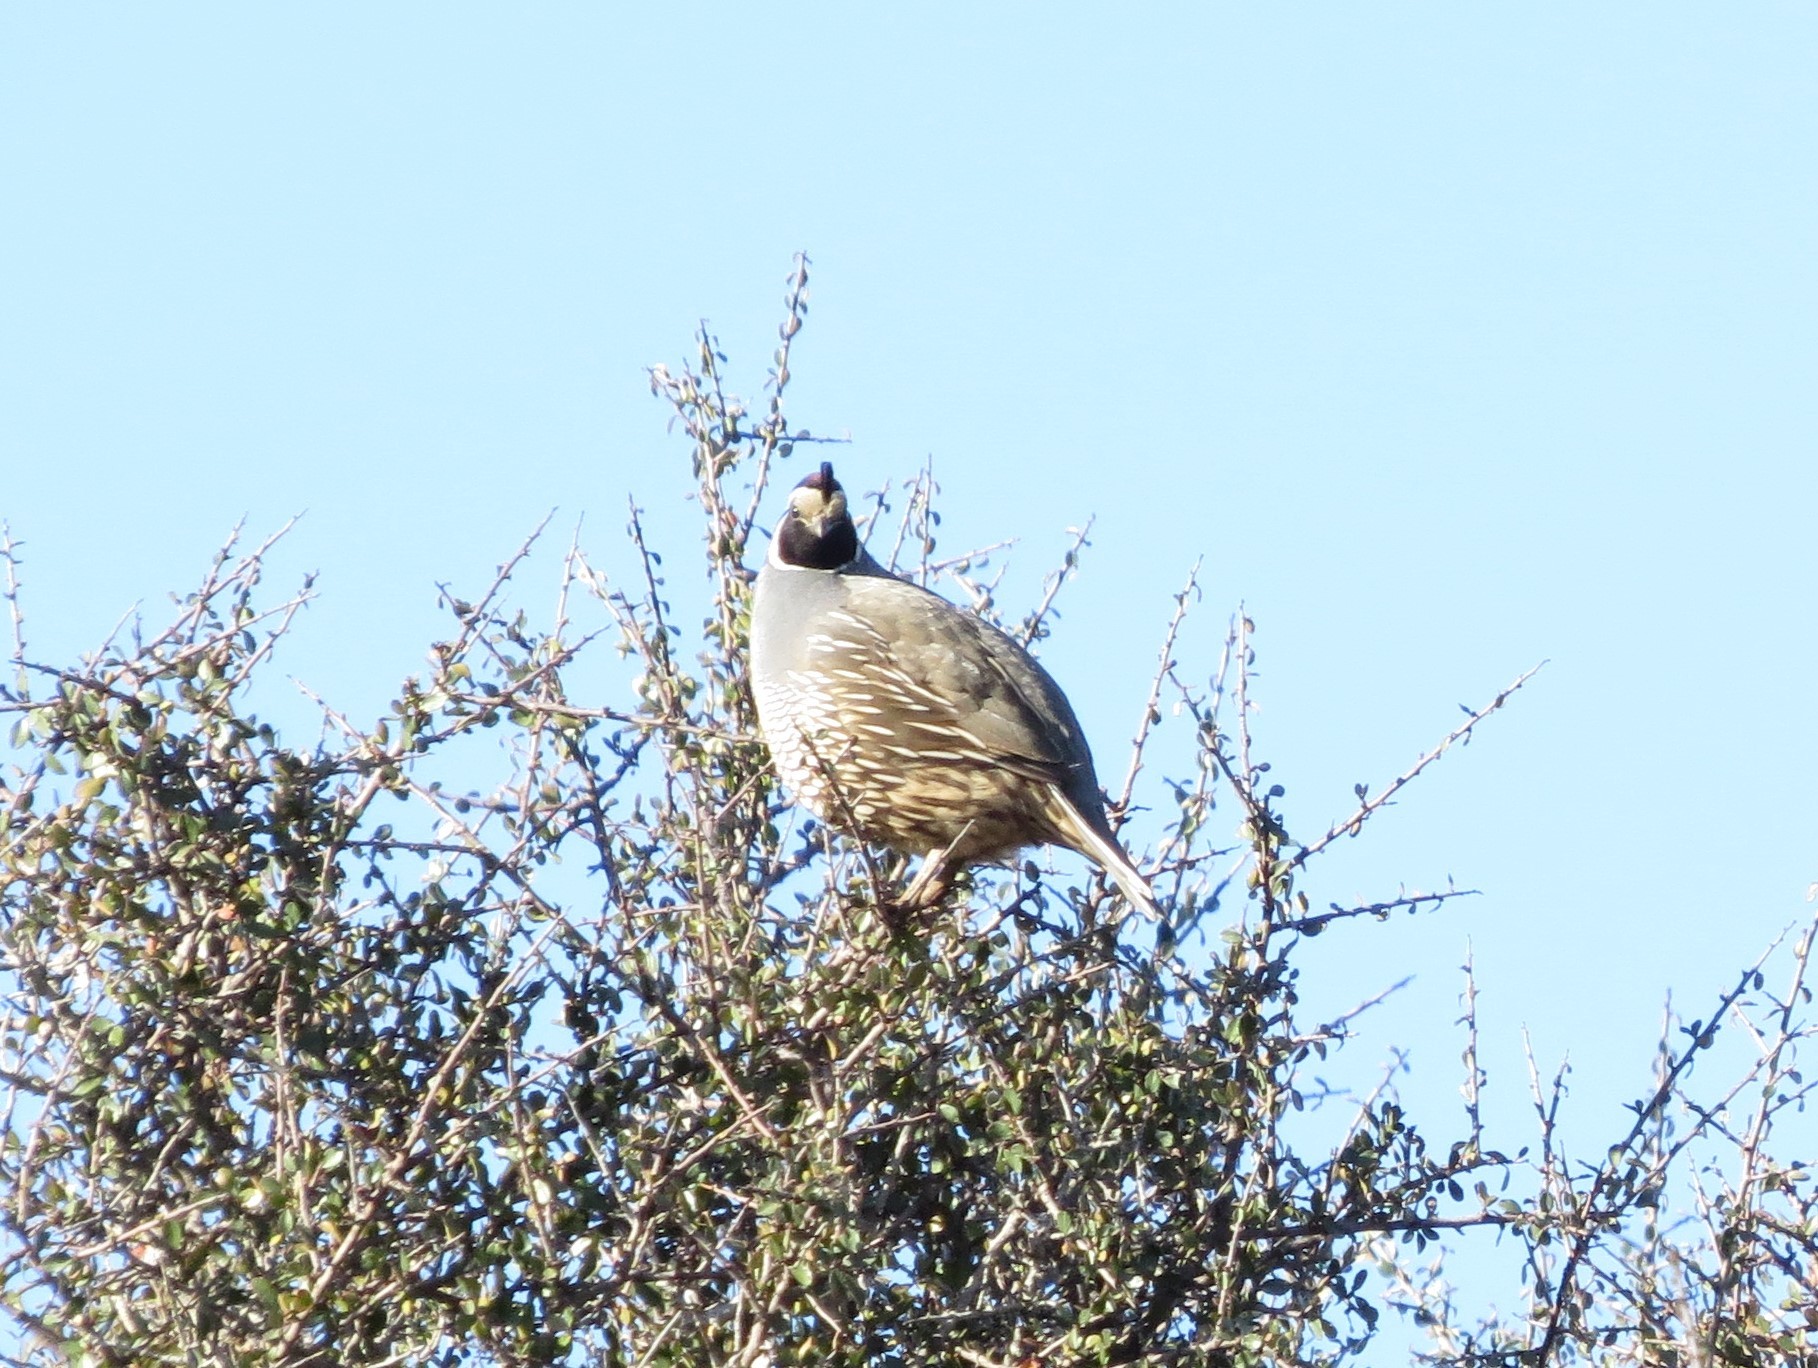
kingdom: Animalia
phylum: Chordata
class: Aves
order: Galliformes
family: Odontophoridae
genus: Callipepla
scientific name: Callipepla californica
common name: California quail
